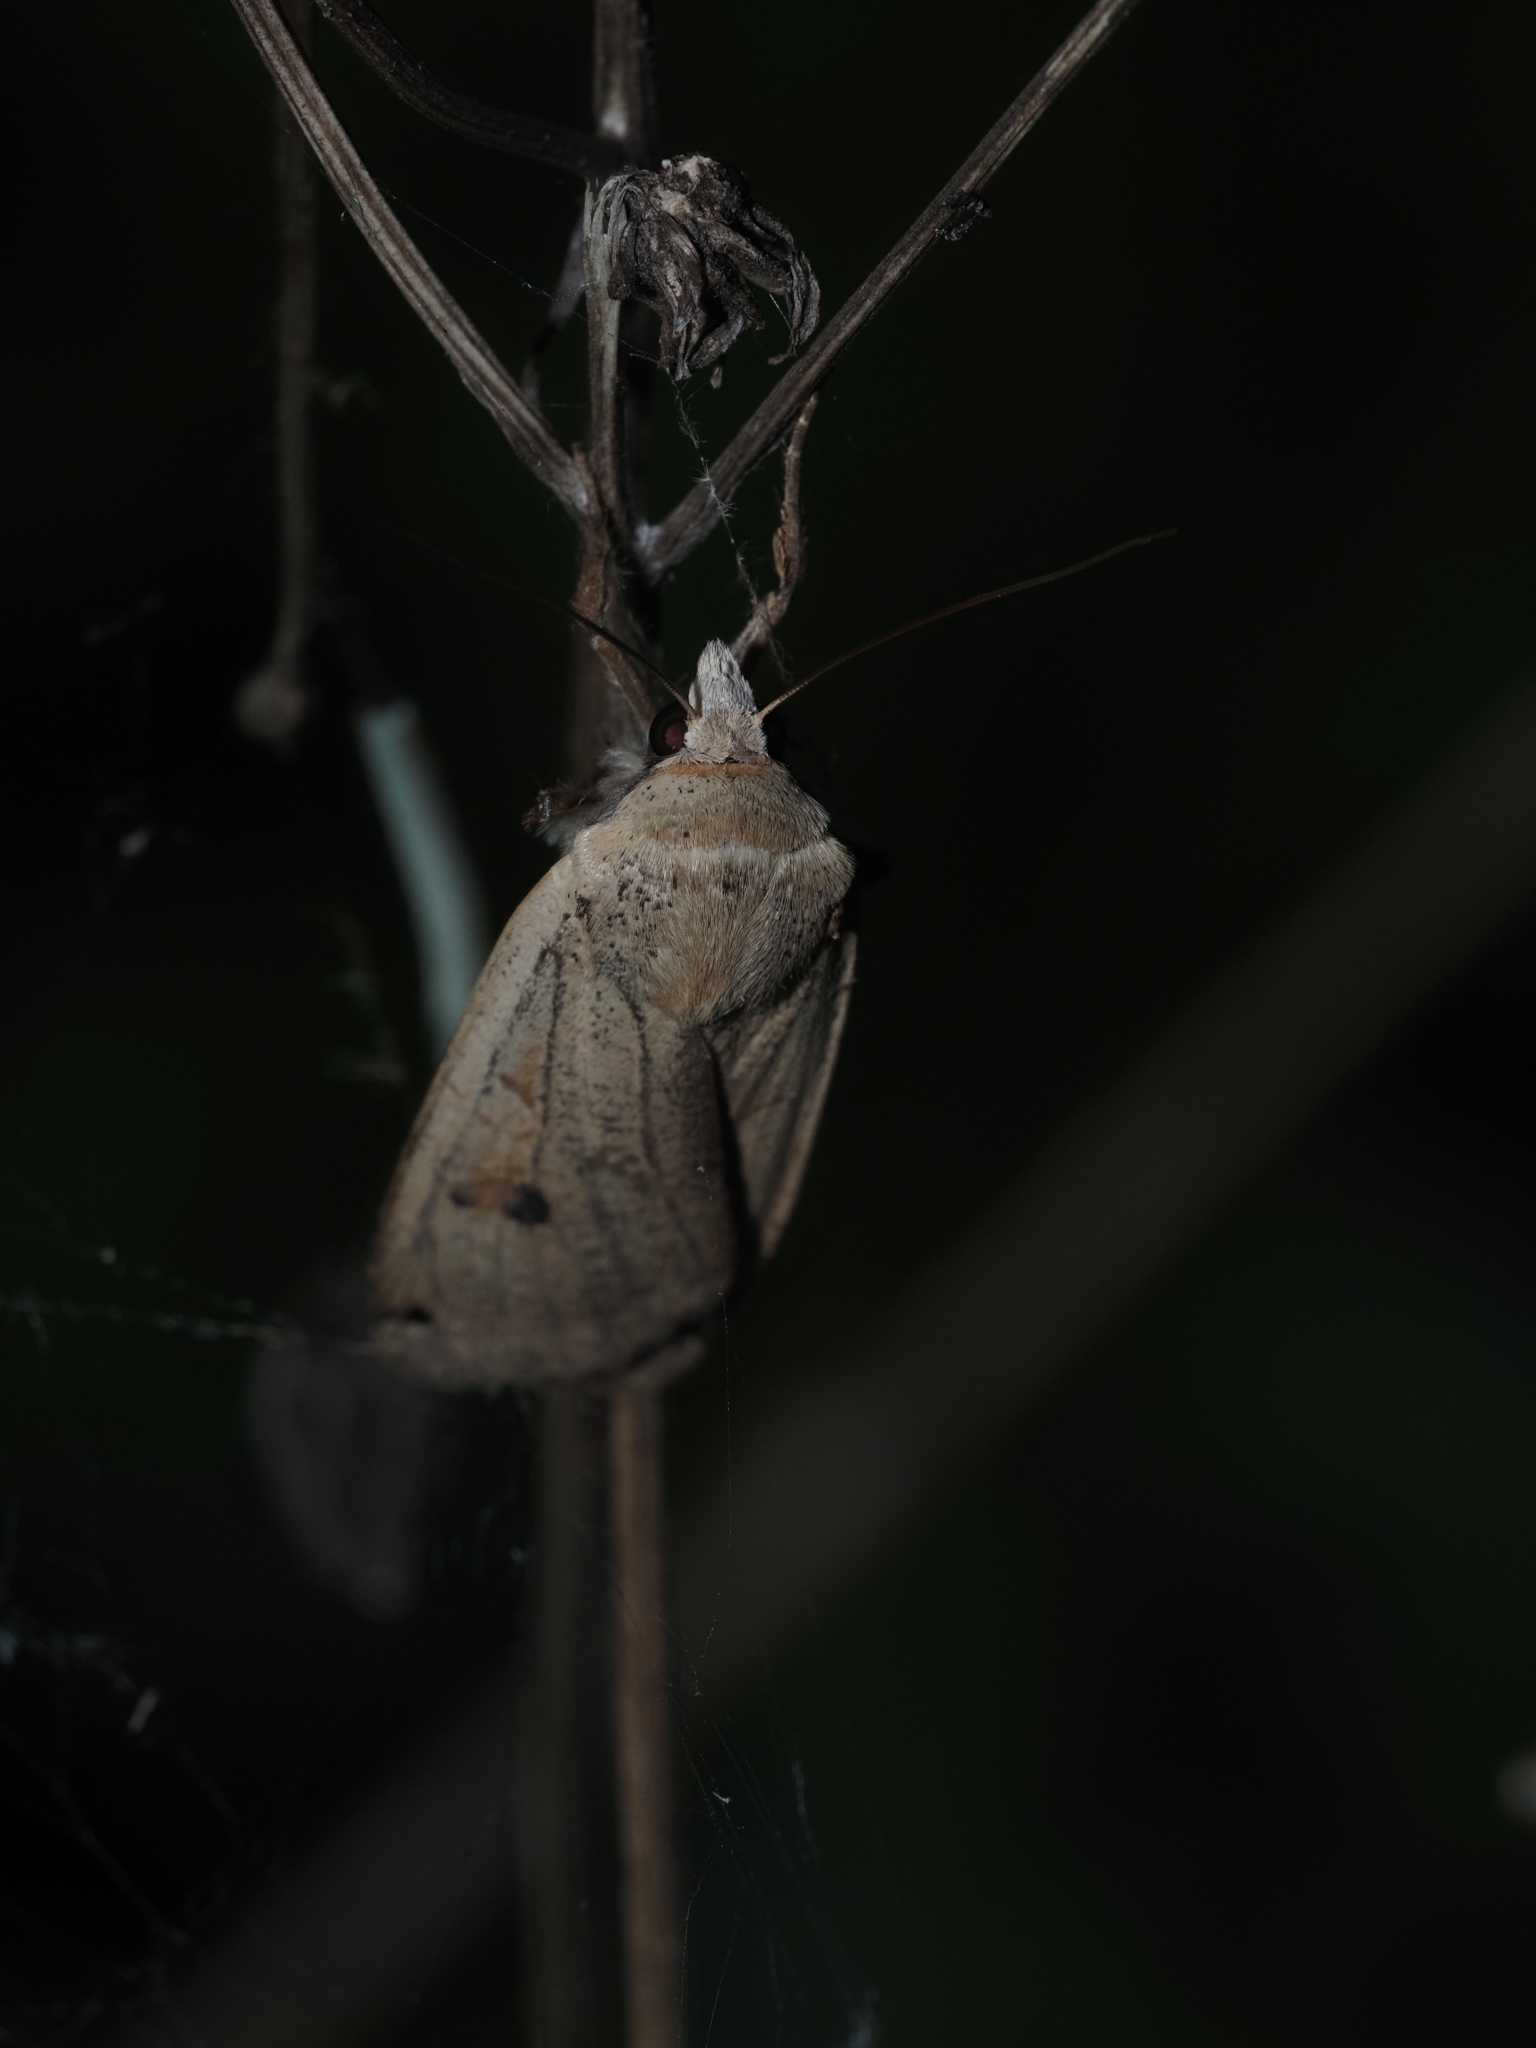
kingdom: Animalia
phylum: Arthropoda
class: Insecta
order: Lepidoptera
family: Noctuidae
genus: Noctua
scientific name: Noctua pronuba
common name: Large yellow underwing
